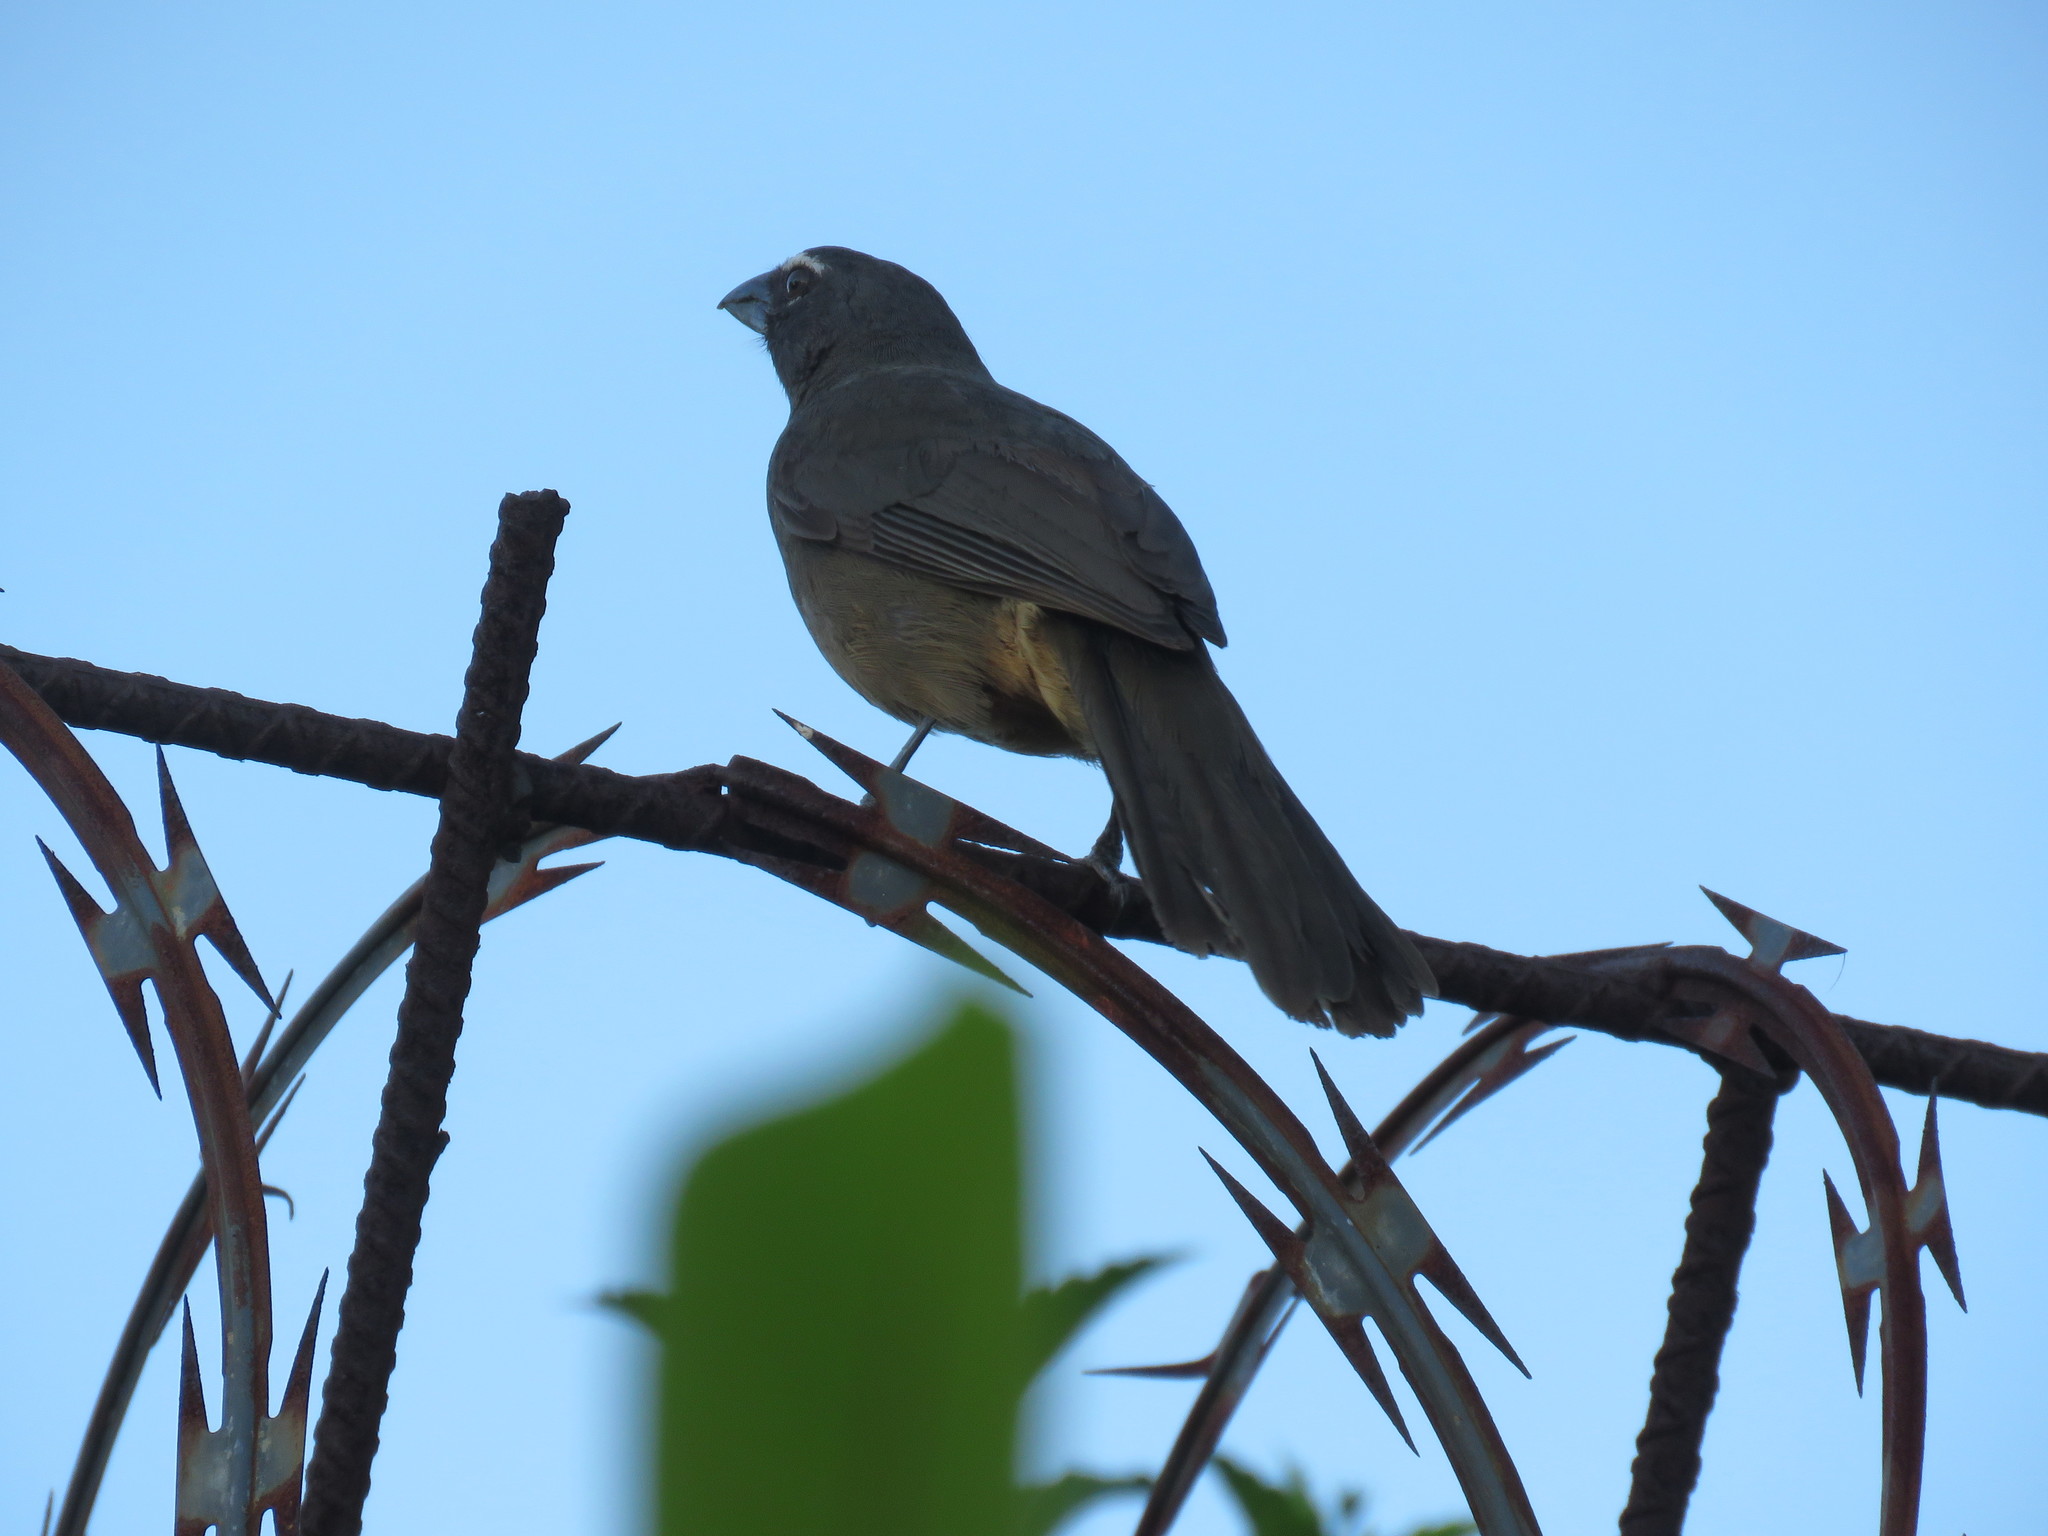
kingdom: Animalia
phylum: Chordata
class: Aves
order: Passeriformes
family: Thraupidae
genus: Saltator
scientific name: Saltator grandis
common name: Cinnamon-bellied saltator
